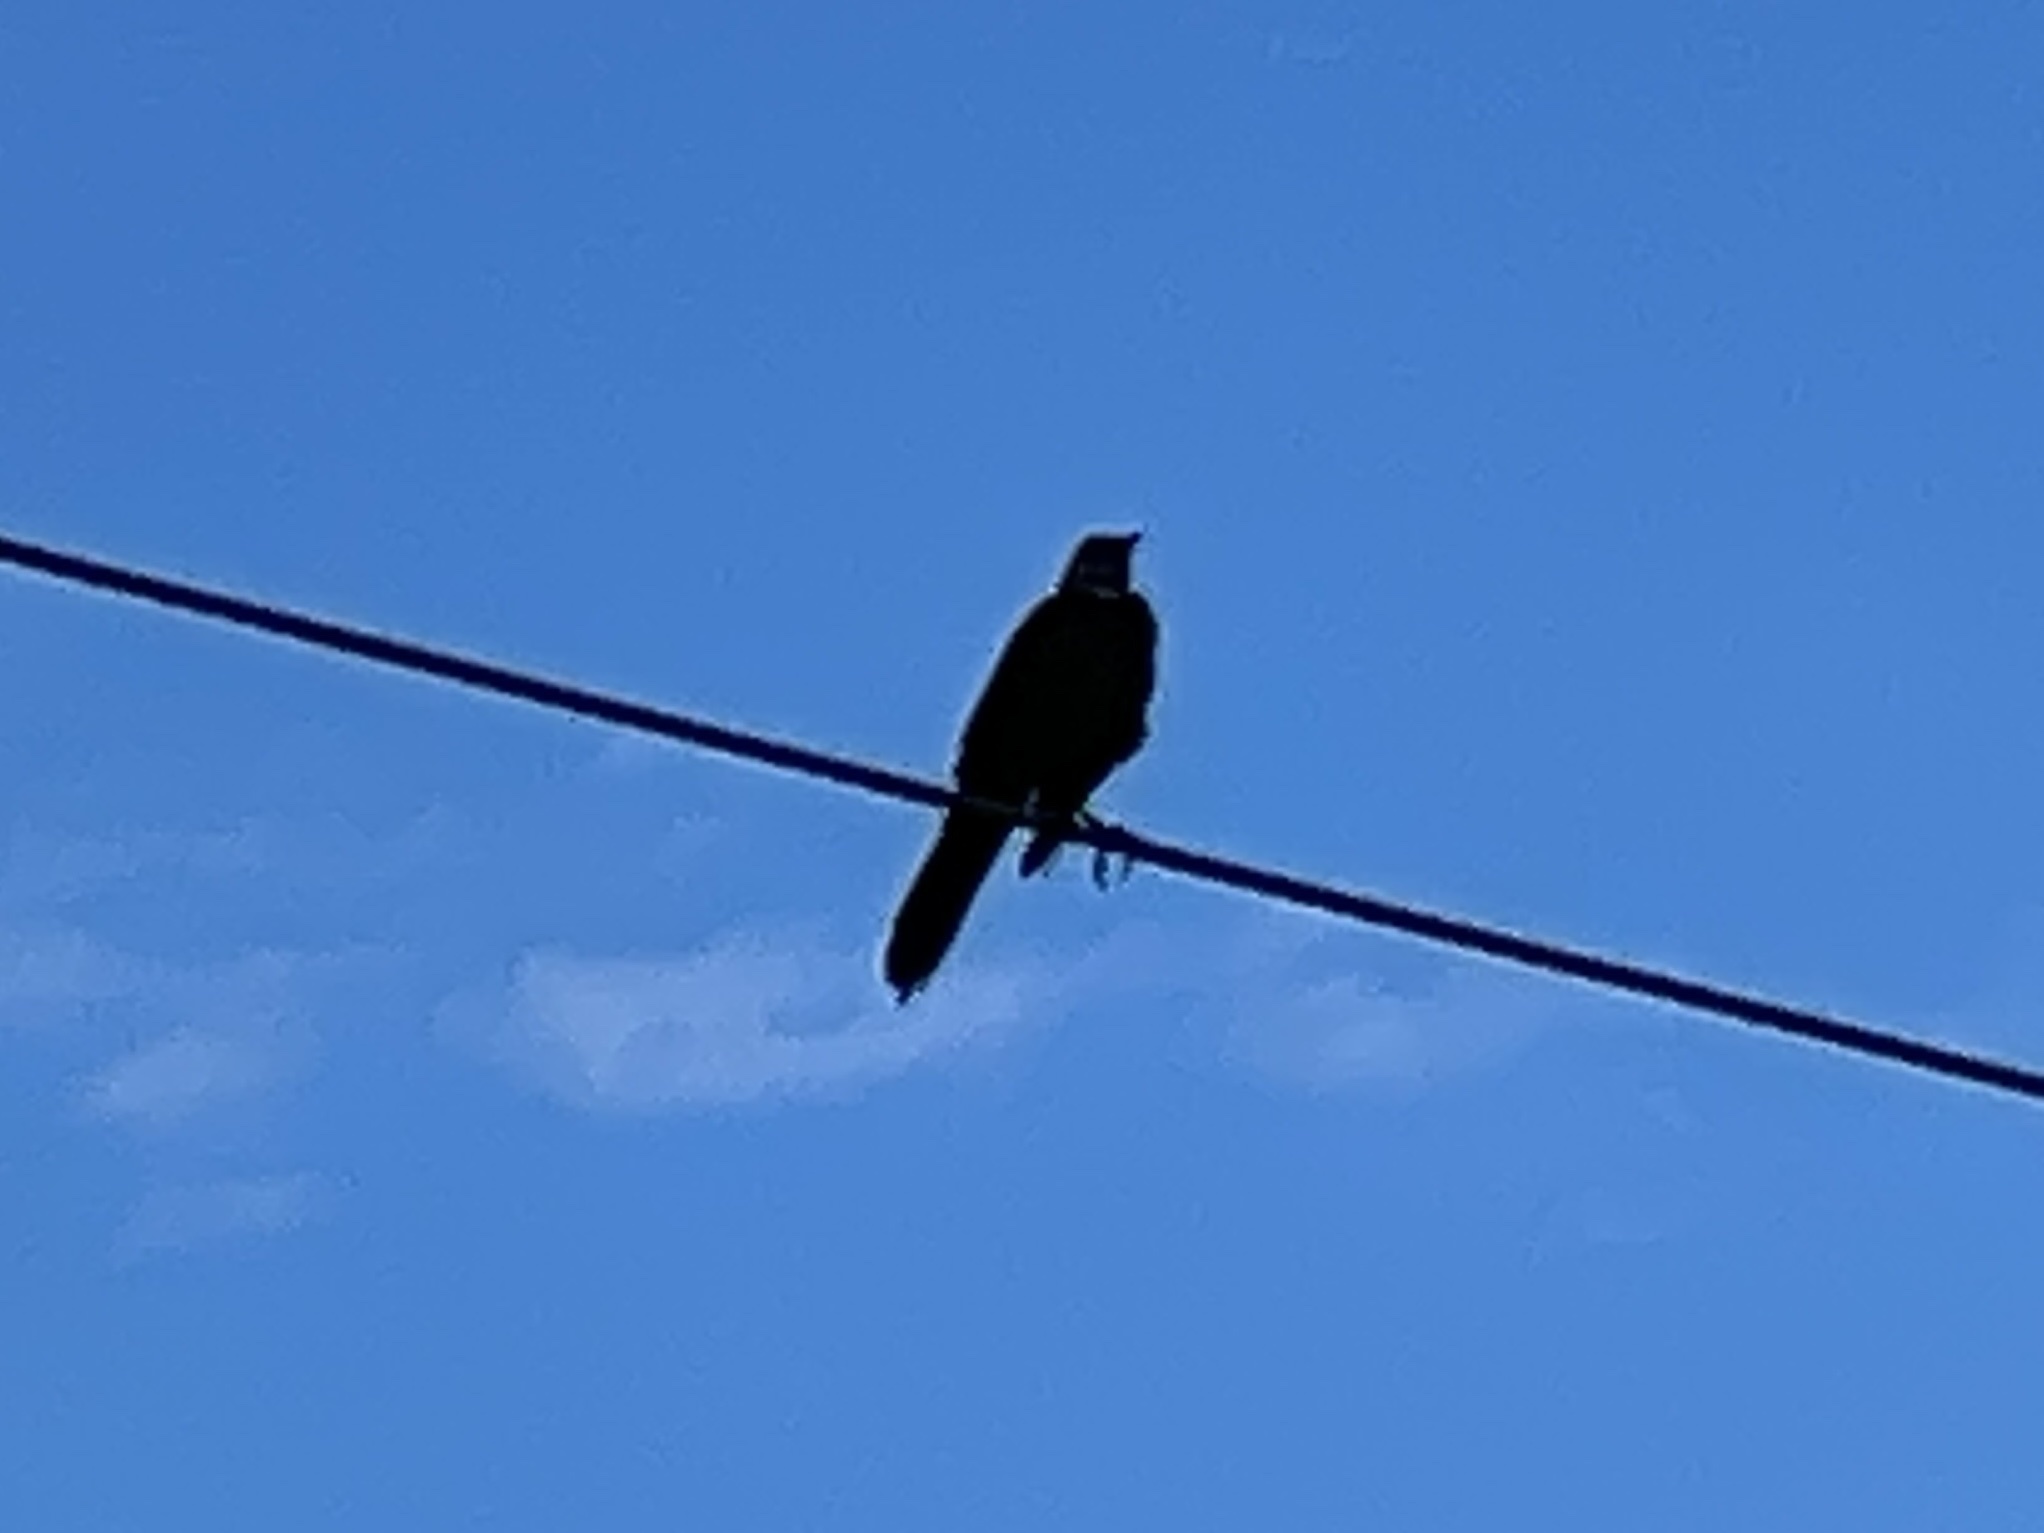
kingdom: Animalia
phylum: Chordata
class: Aves
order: Passeriformes
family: Icteridae
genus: Quiscalus
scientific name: Quiscalus mexicanus
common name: Great-tailed grackle
